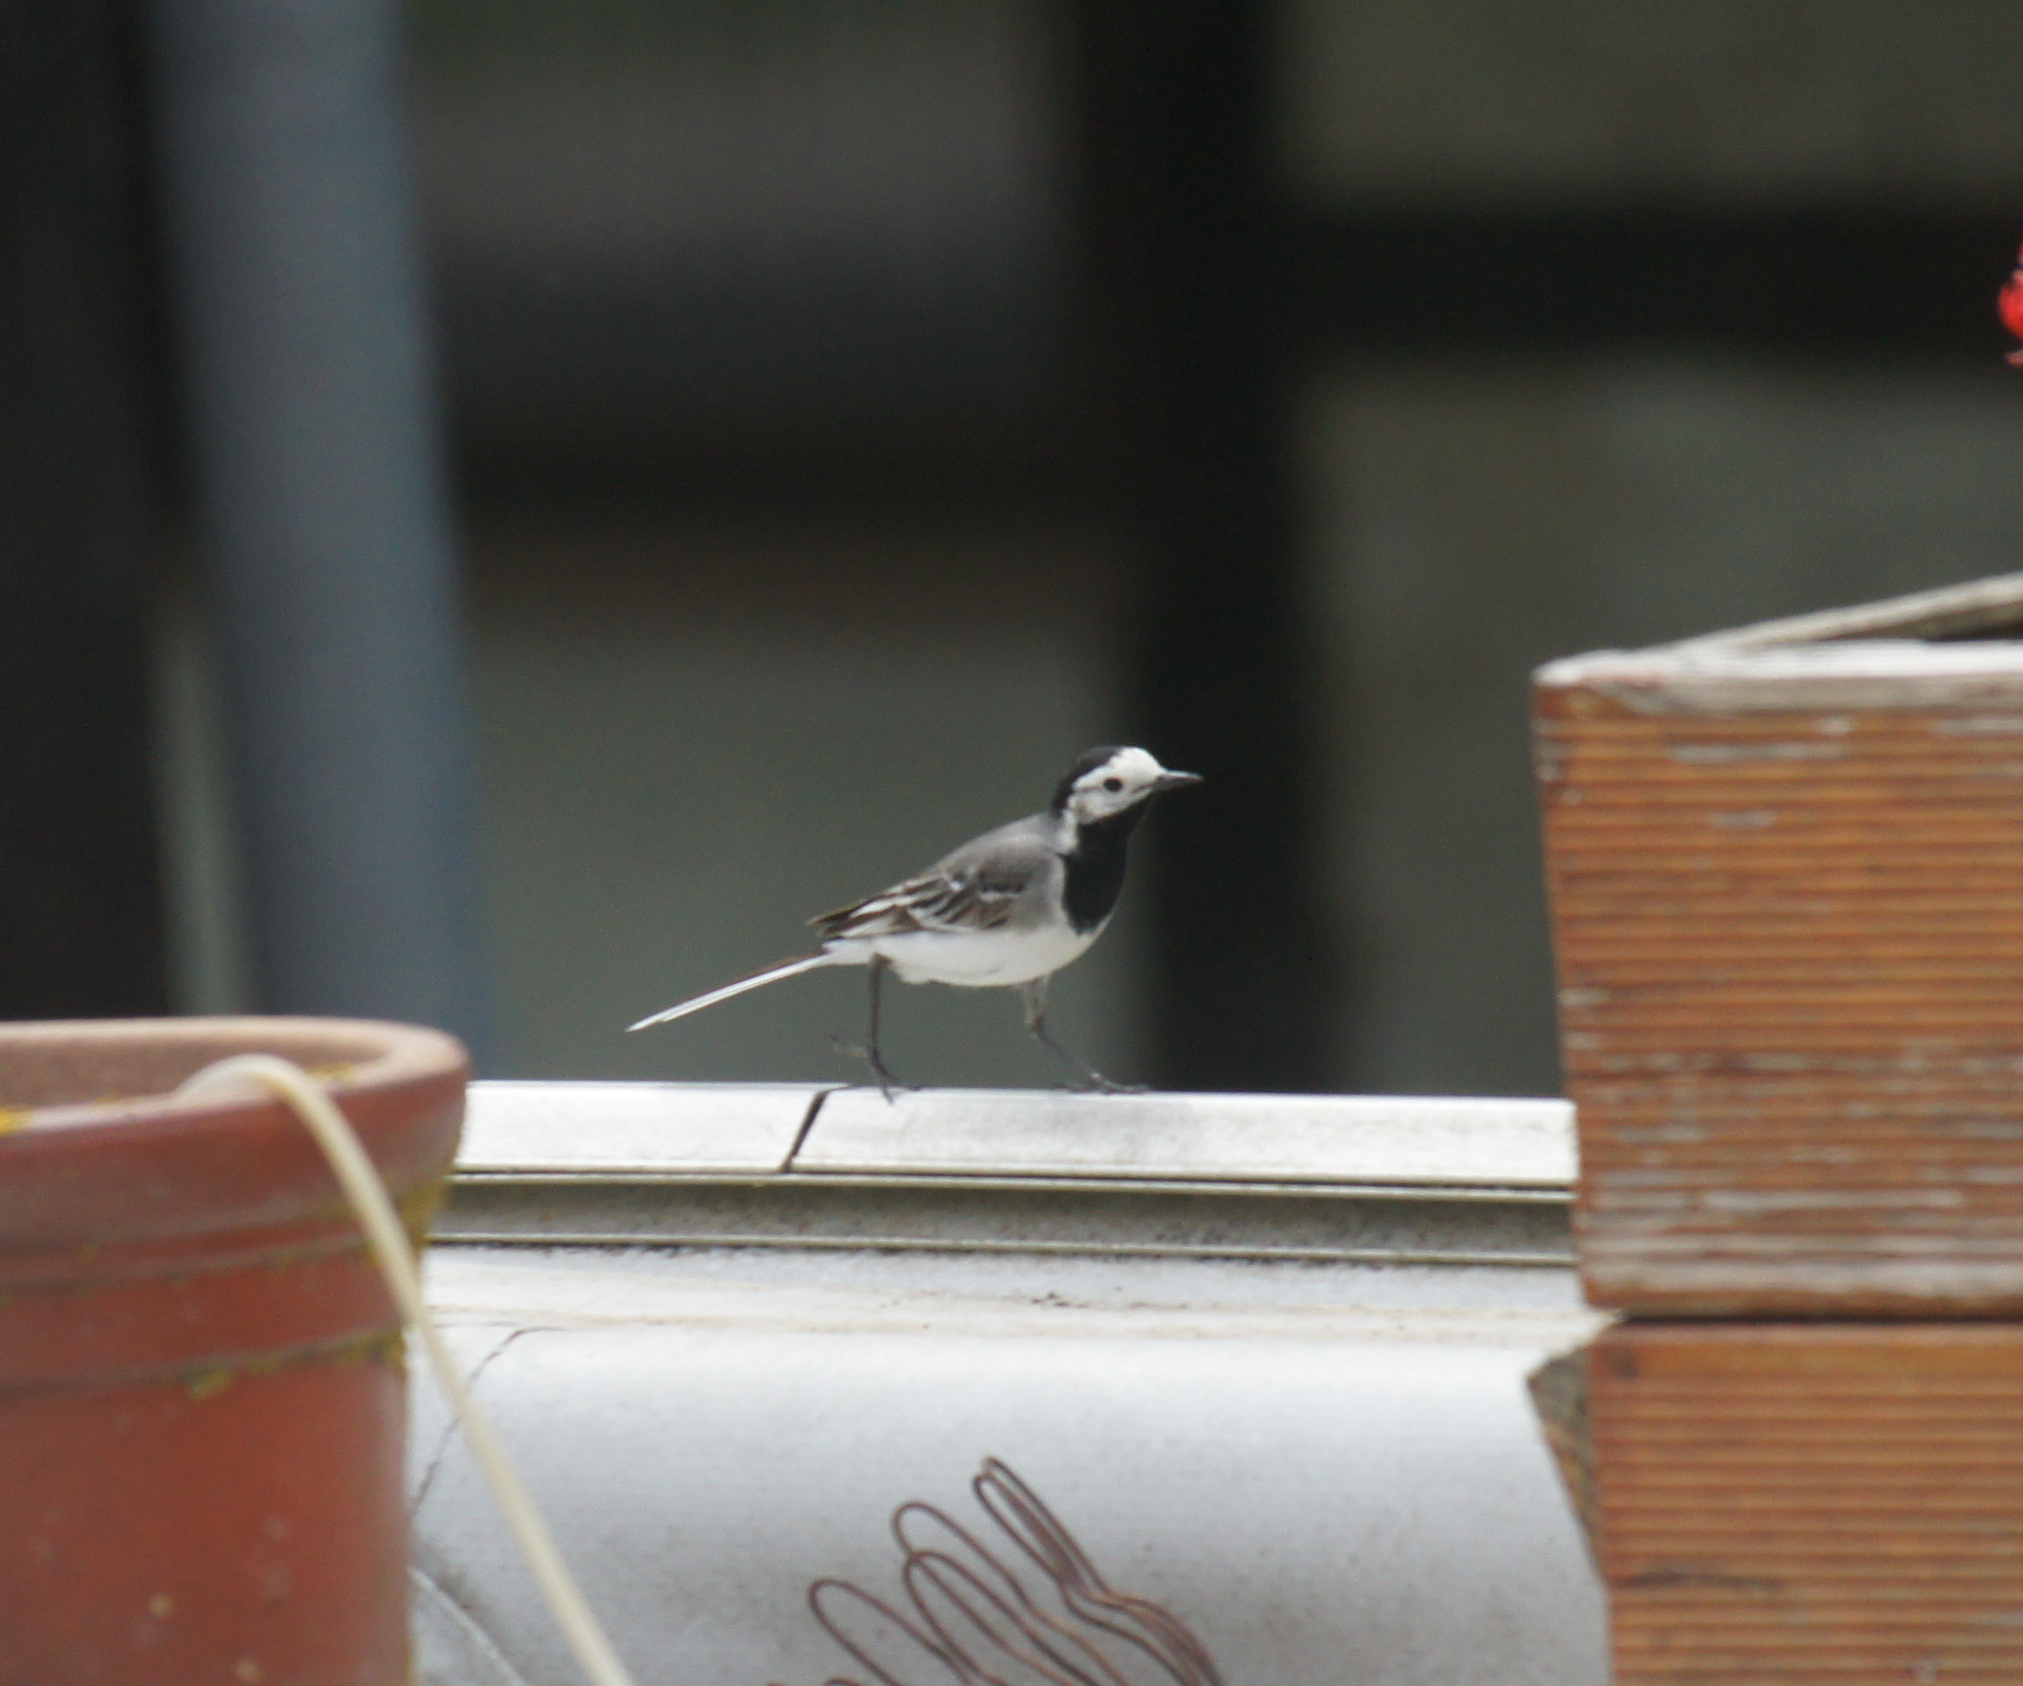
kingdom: Animalia
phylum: Chordata
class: Aves
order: Passeriformes
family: Motacillidae
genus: Motacilla
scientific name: Motacilla alba
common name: White wagtail
